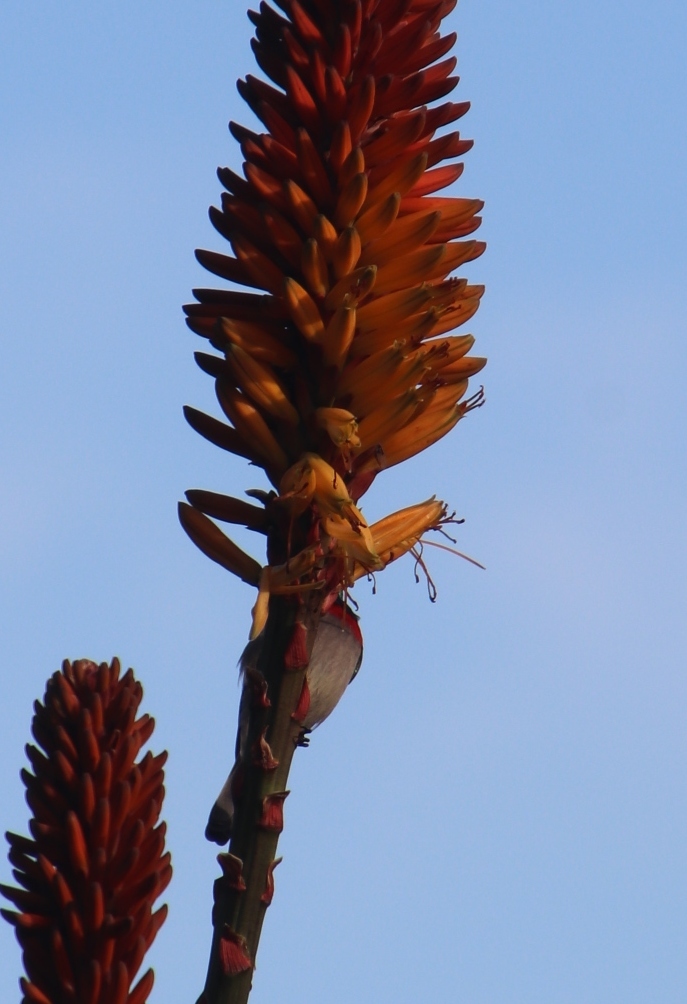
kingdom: Animalia
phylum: Chordata
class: Aves
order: Passeriformes
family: Nectariniidae
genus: Cinnyris
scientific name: Cinnyris chalybeus
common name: Southern double-collared sunbird
